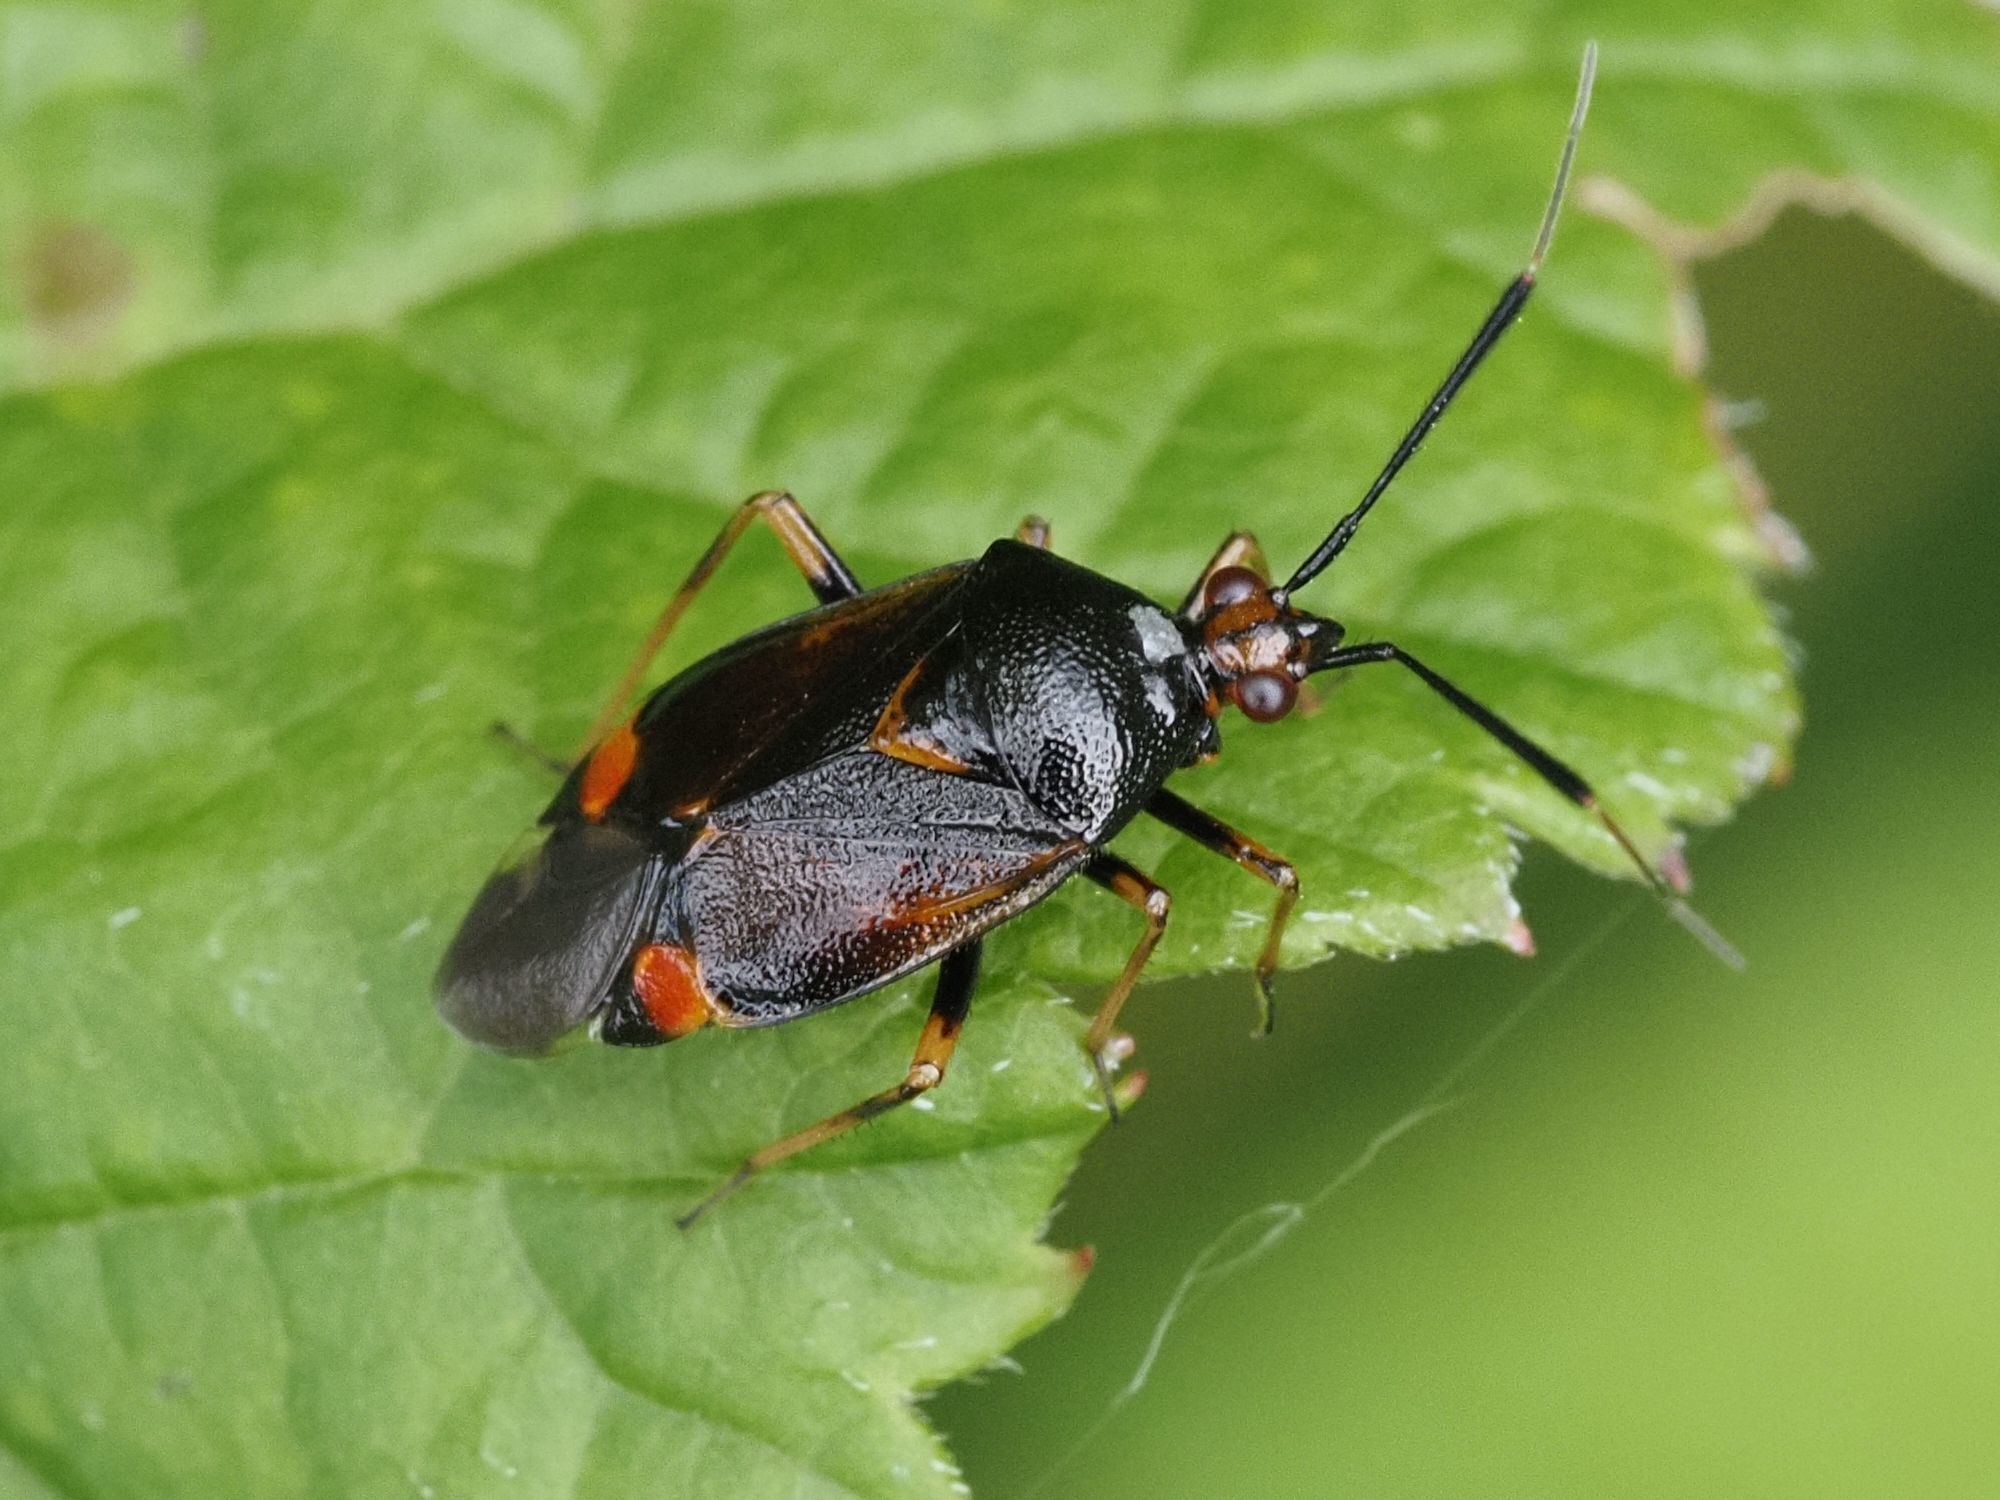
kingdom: Animalia
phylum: Arthropoda
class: Insecta
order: Hemiptera
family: Miridae
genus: Deraeocoris
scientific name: Deraeocoris ruber
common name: Plant bug
